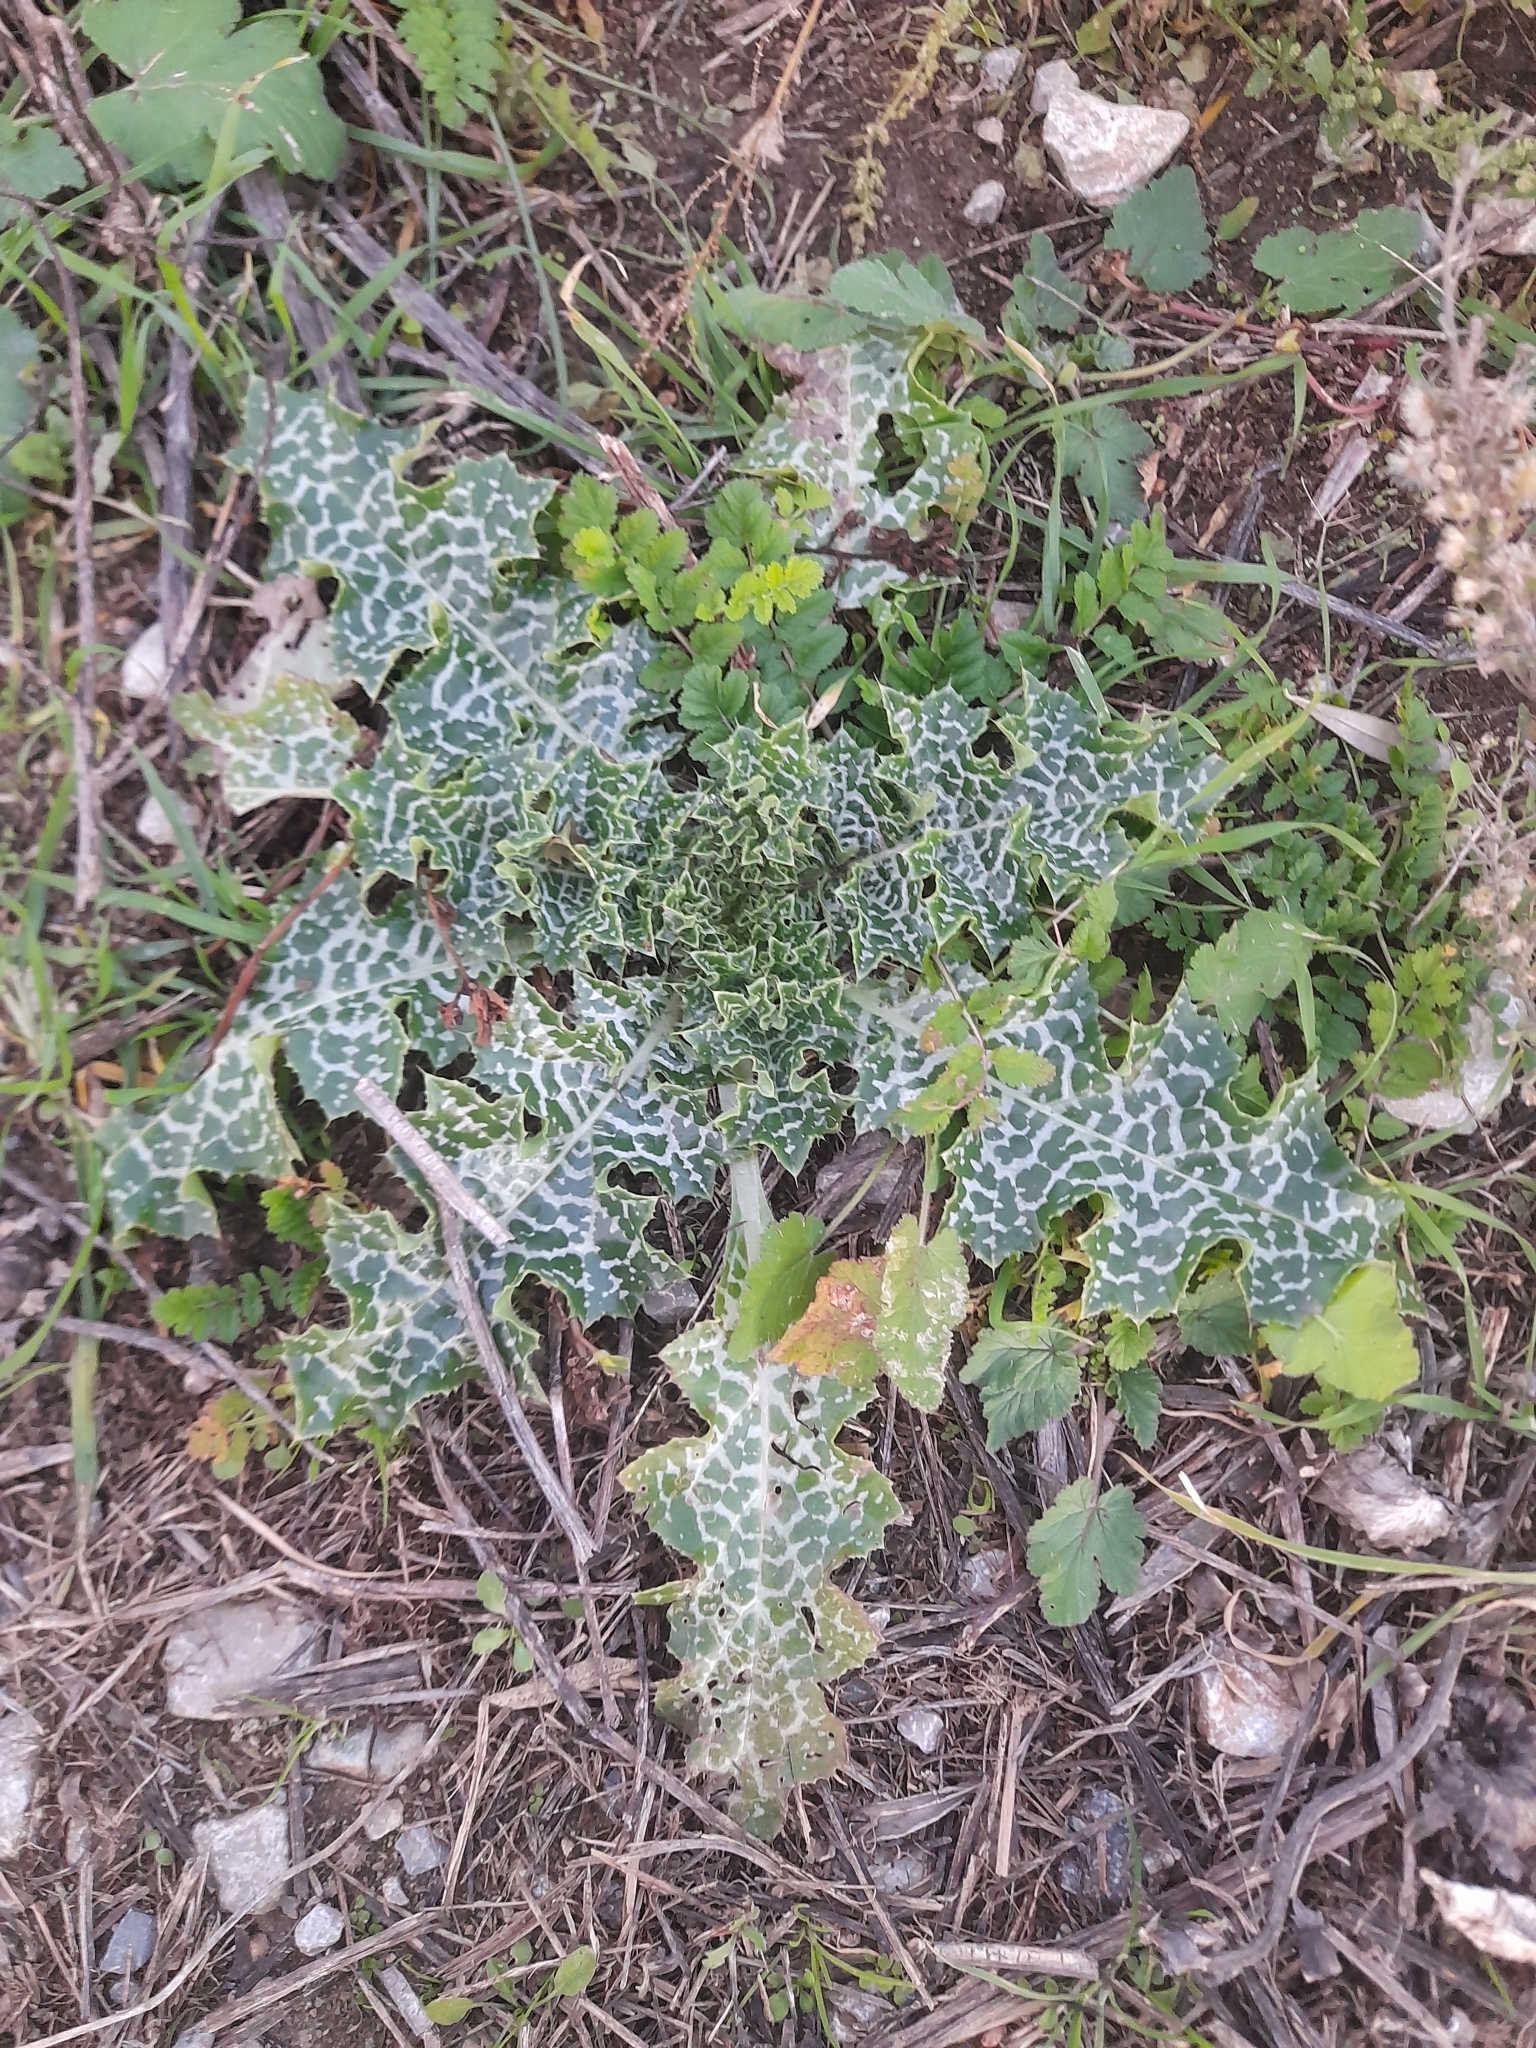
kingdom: Plantae
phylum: Tracheophyta
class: Magnoliopsida
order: Asterales
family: Asteraceae
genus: Silybum
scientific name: Silybum marianum
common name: Milk thistle
